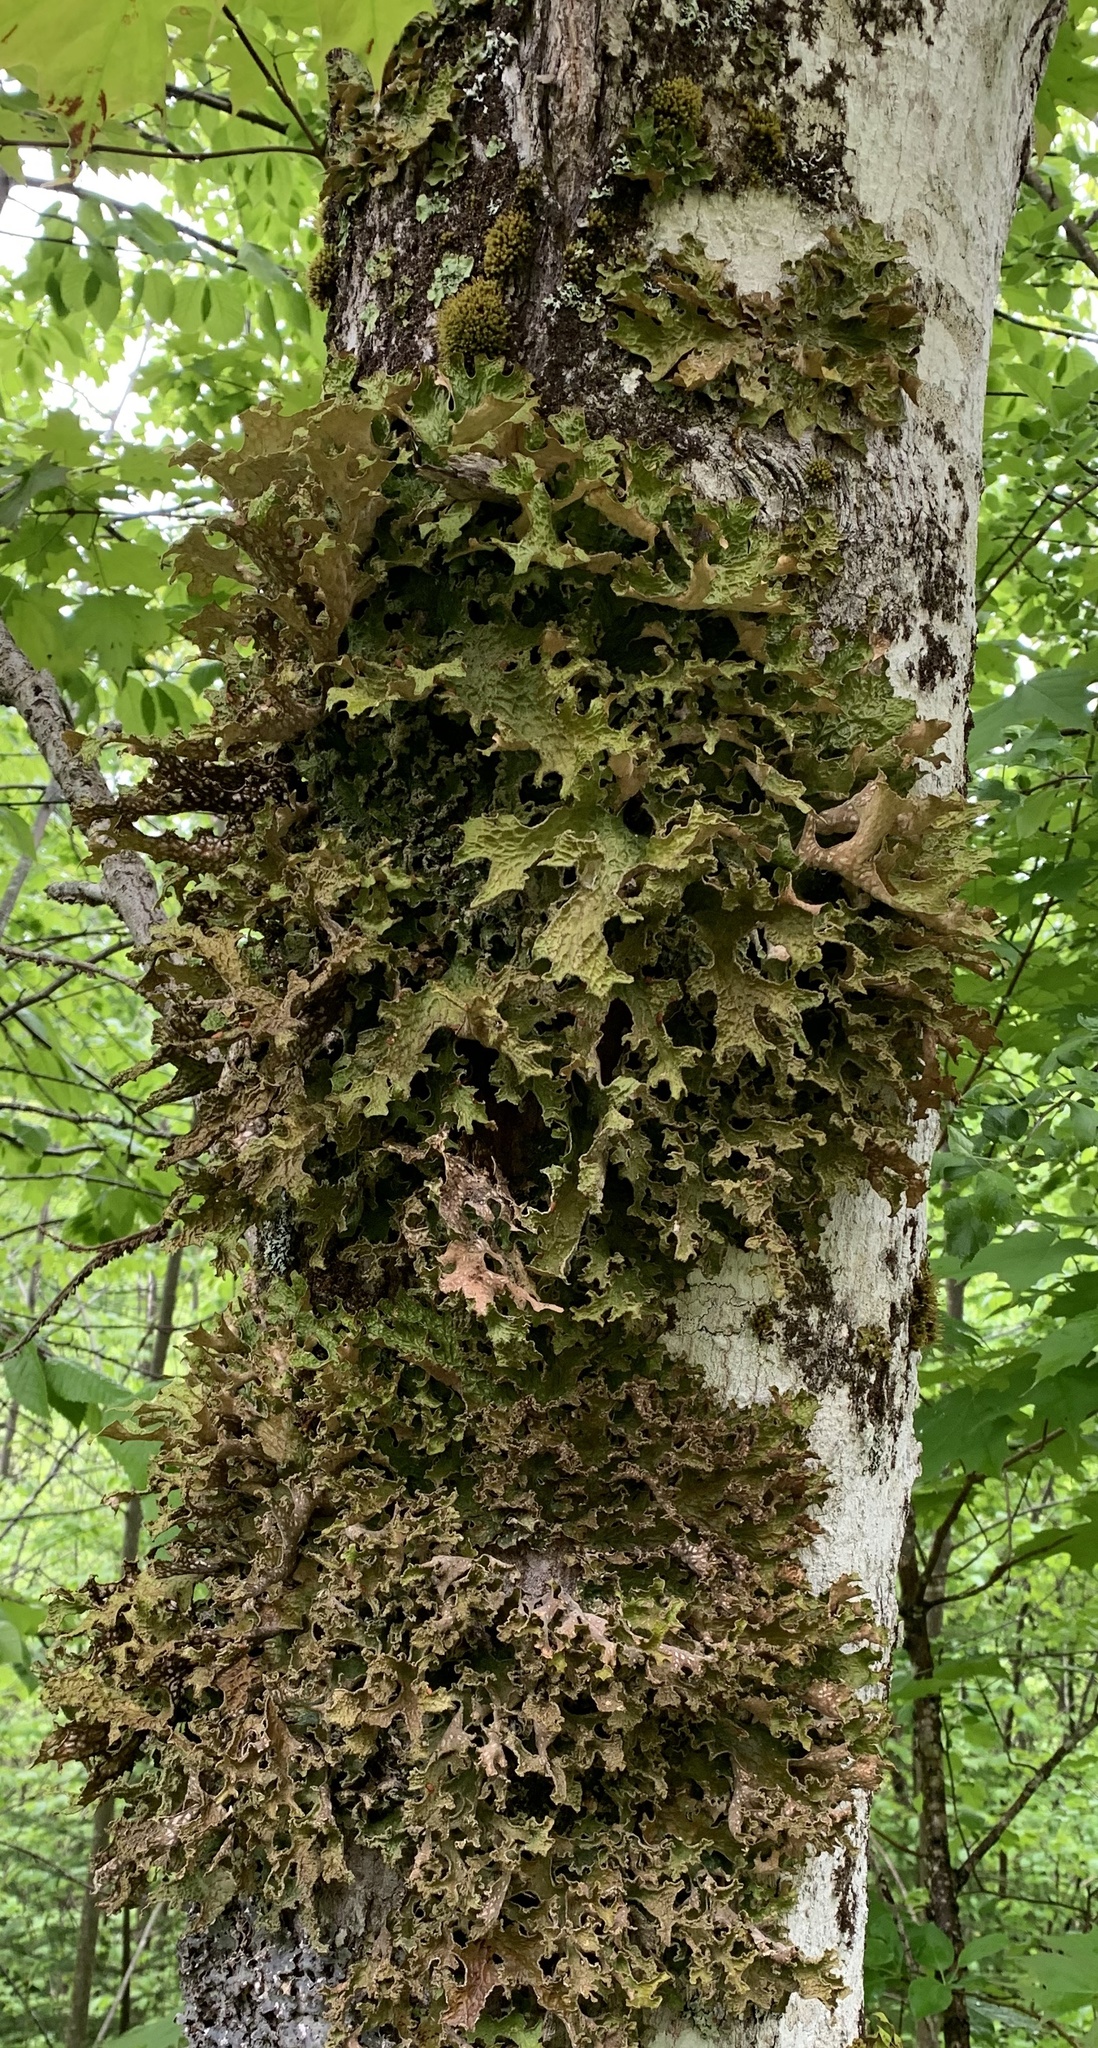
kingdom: Fungi
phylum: Ascomycota
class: Lecanoromycetes
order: Peltigerales
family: Lobariaceae
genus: Lobaria
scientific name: Lobaria pulmonaria
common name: Lungwort
